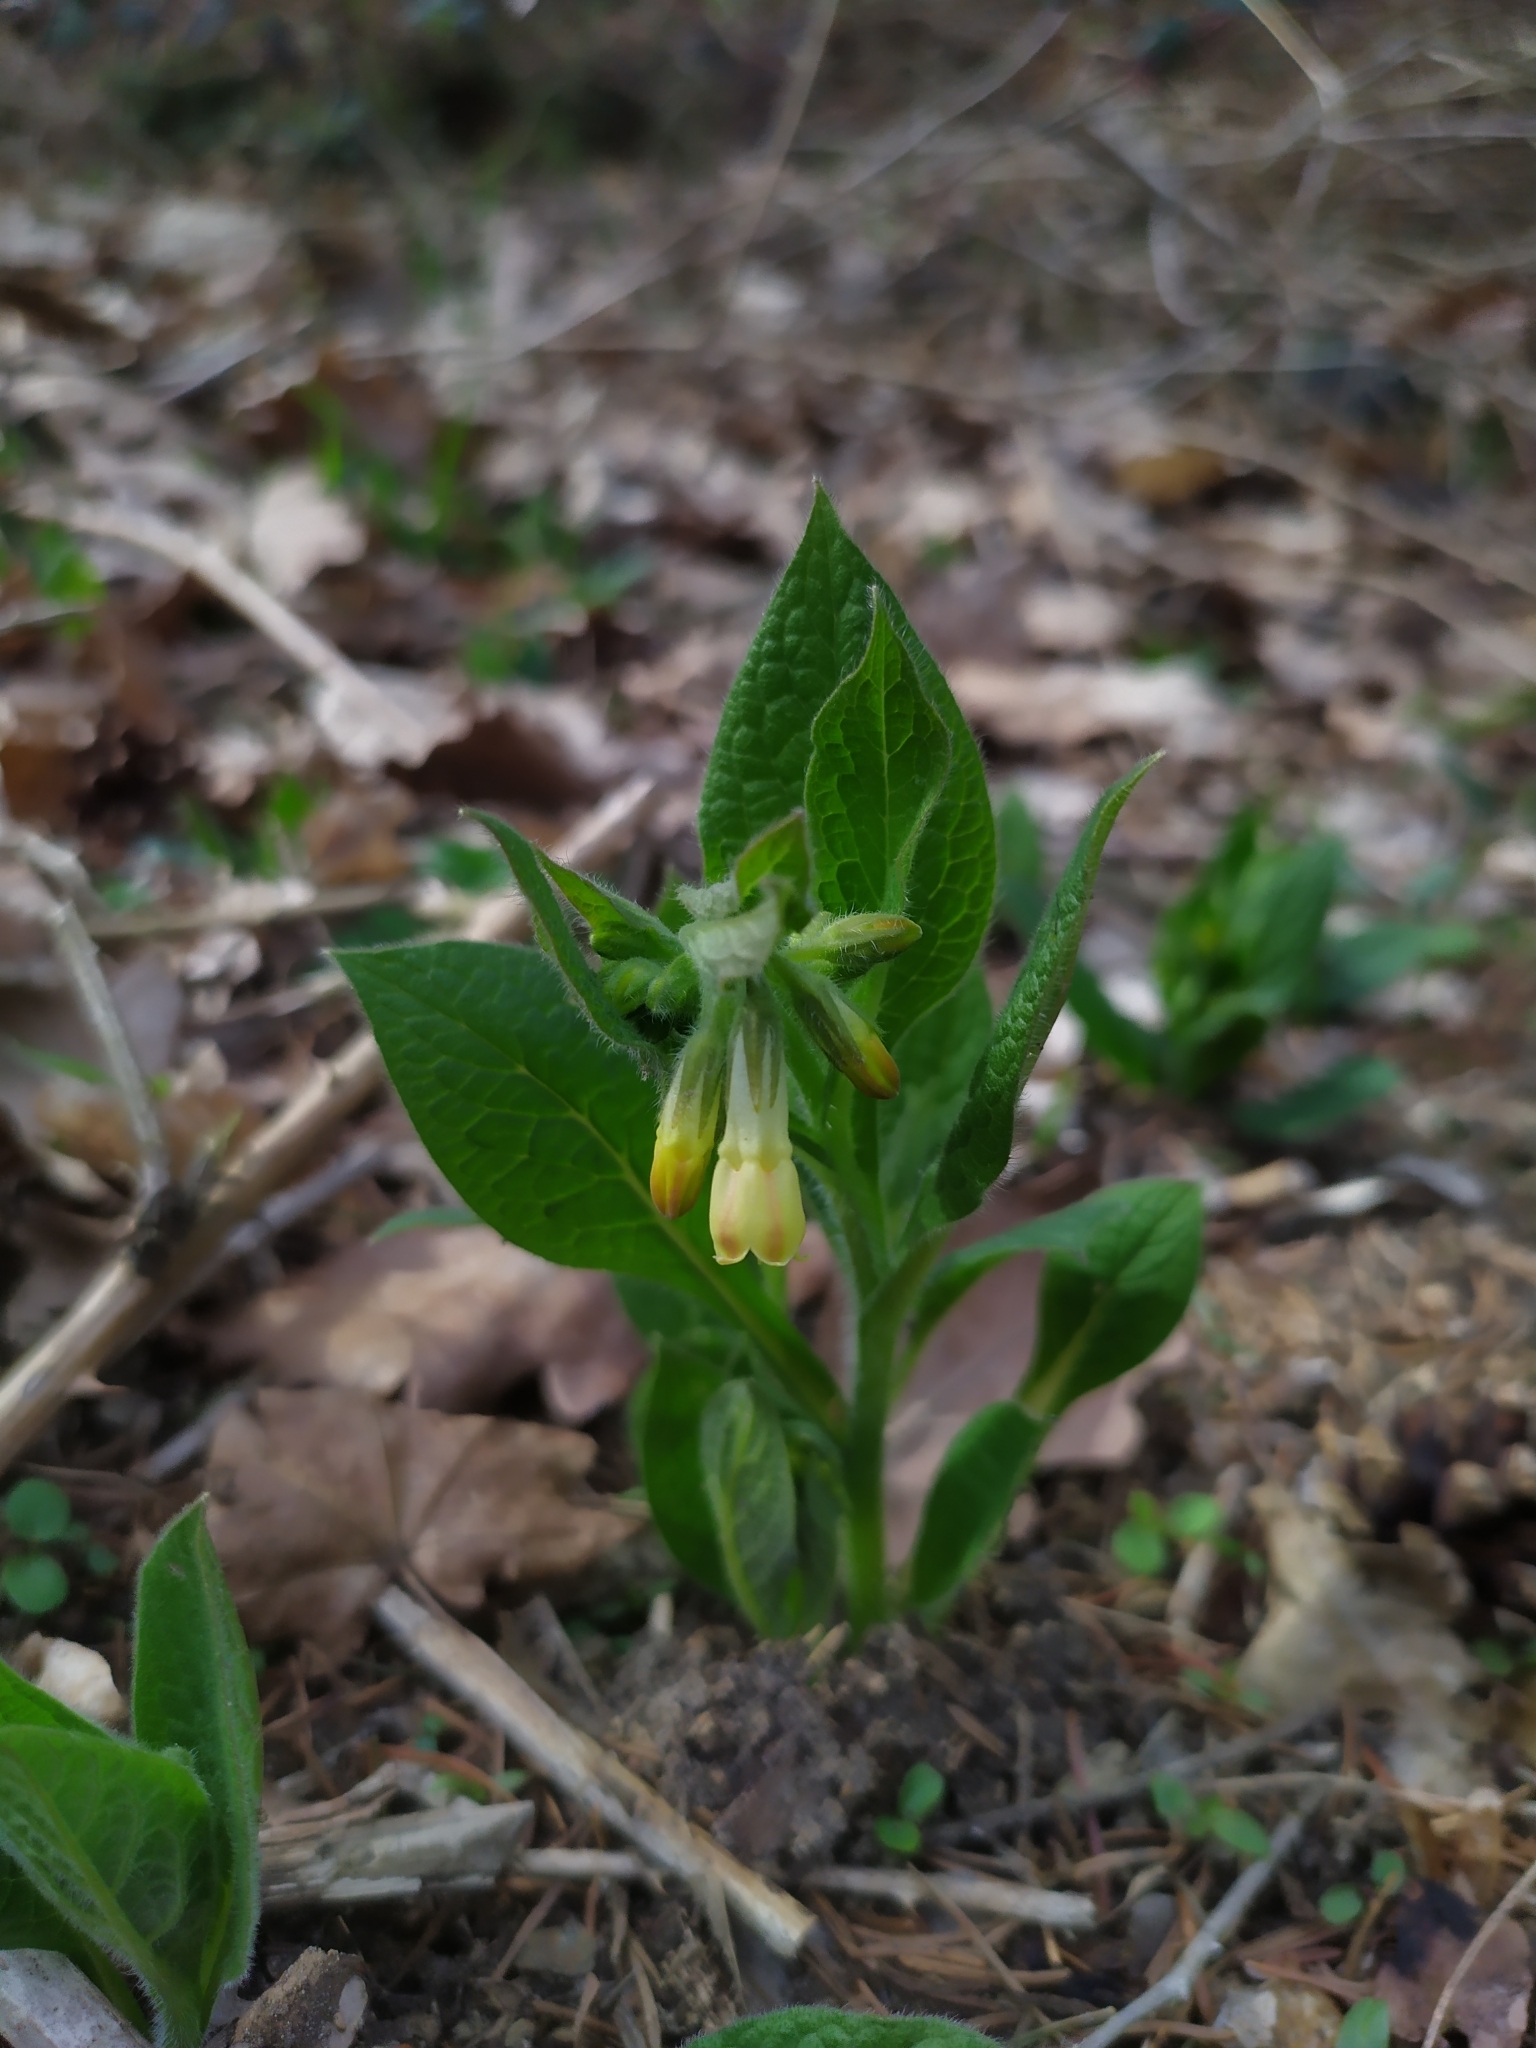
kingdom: Plantae
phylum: Tracheophyta
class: Magnoliopsida
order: Boraginales
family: Boraginaceae
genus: Symphytum
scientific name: Symphytum tuberosum
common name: Tuberous comfrey
